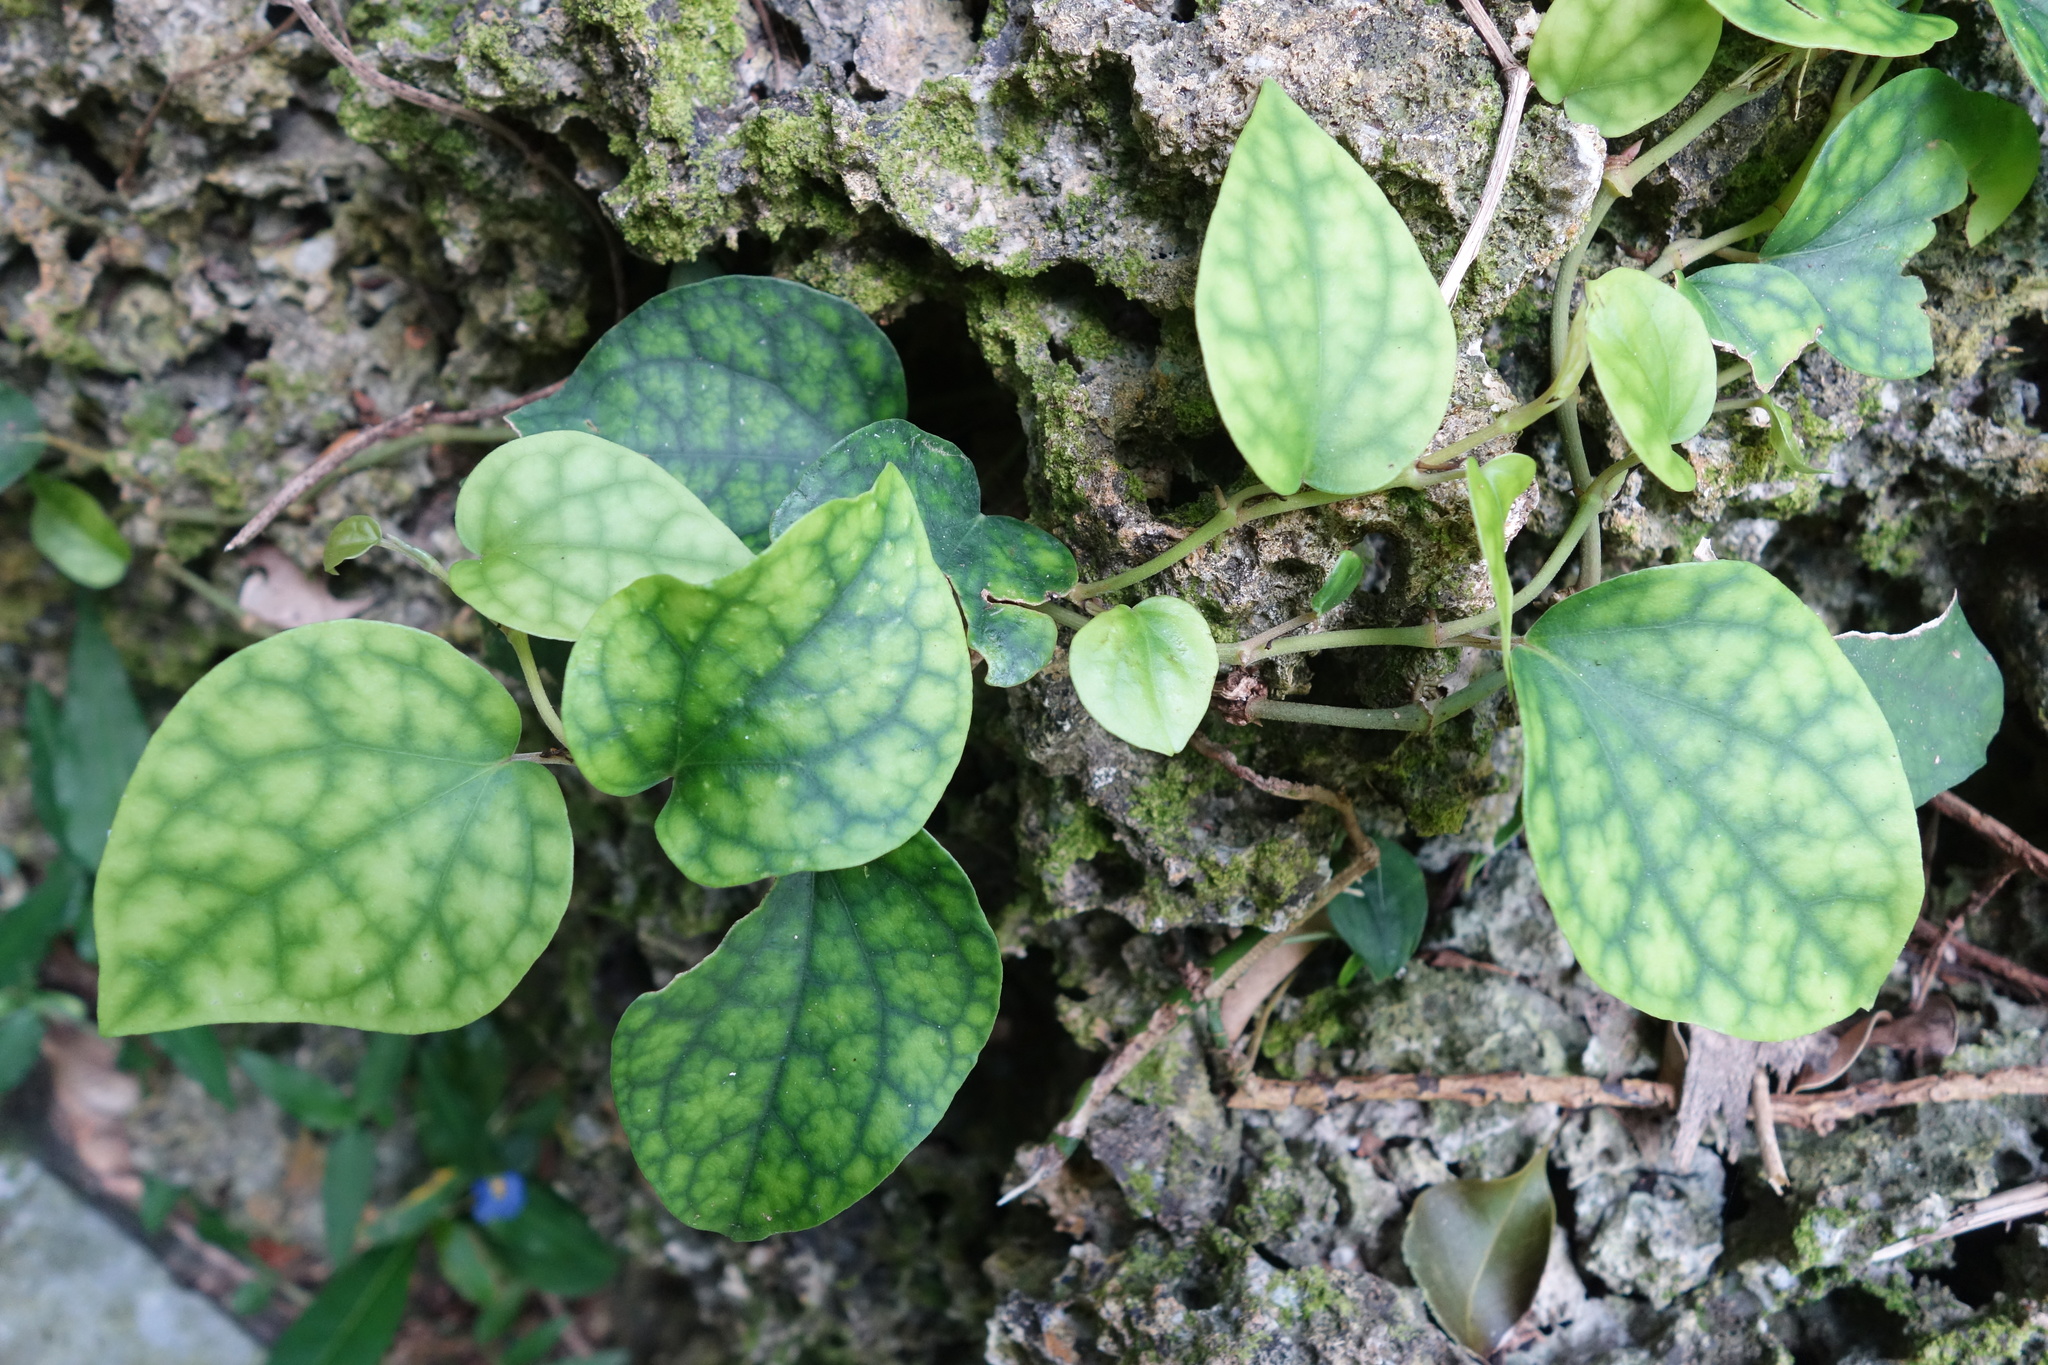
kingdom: Plantae
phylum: Tracheophyta
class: Magnoliopsida
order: Piperales
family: Piperaceae
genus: Piper
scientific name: Piper kadsura
